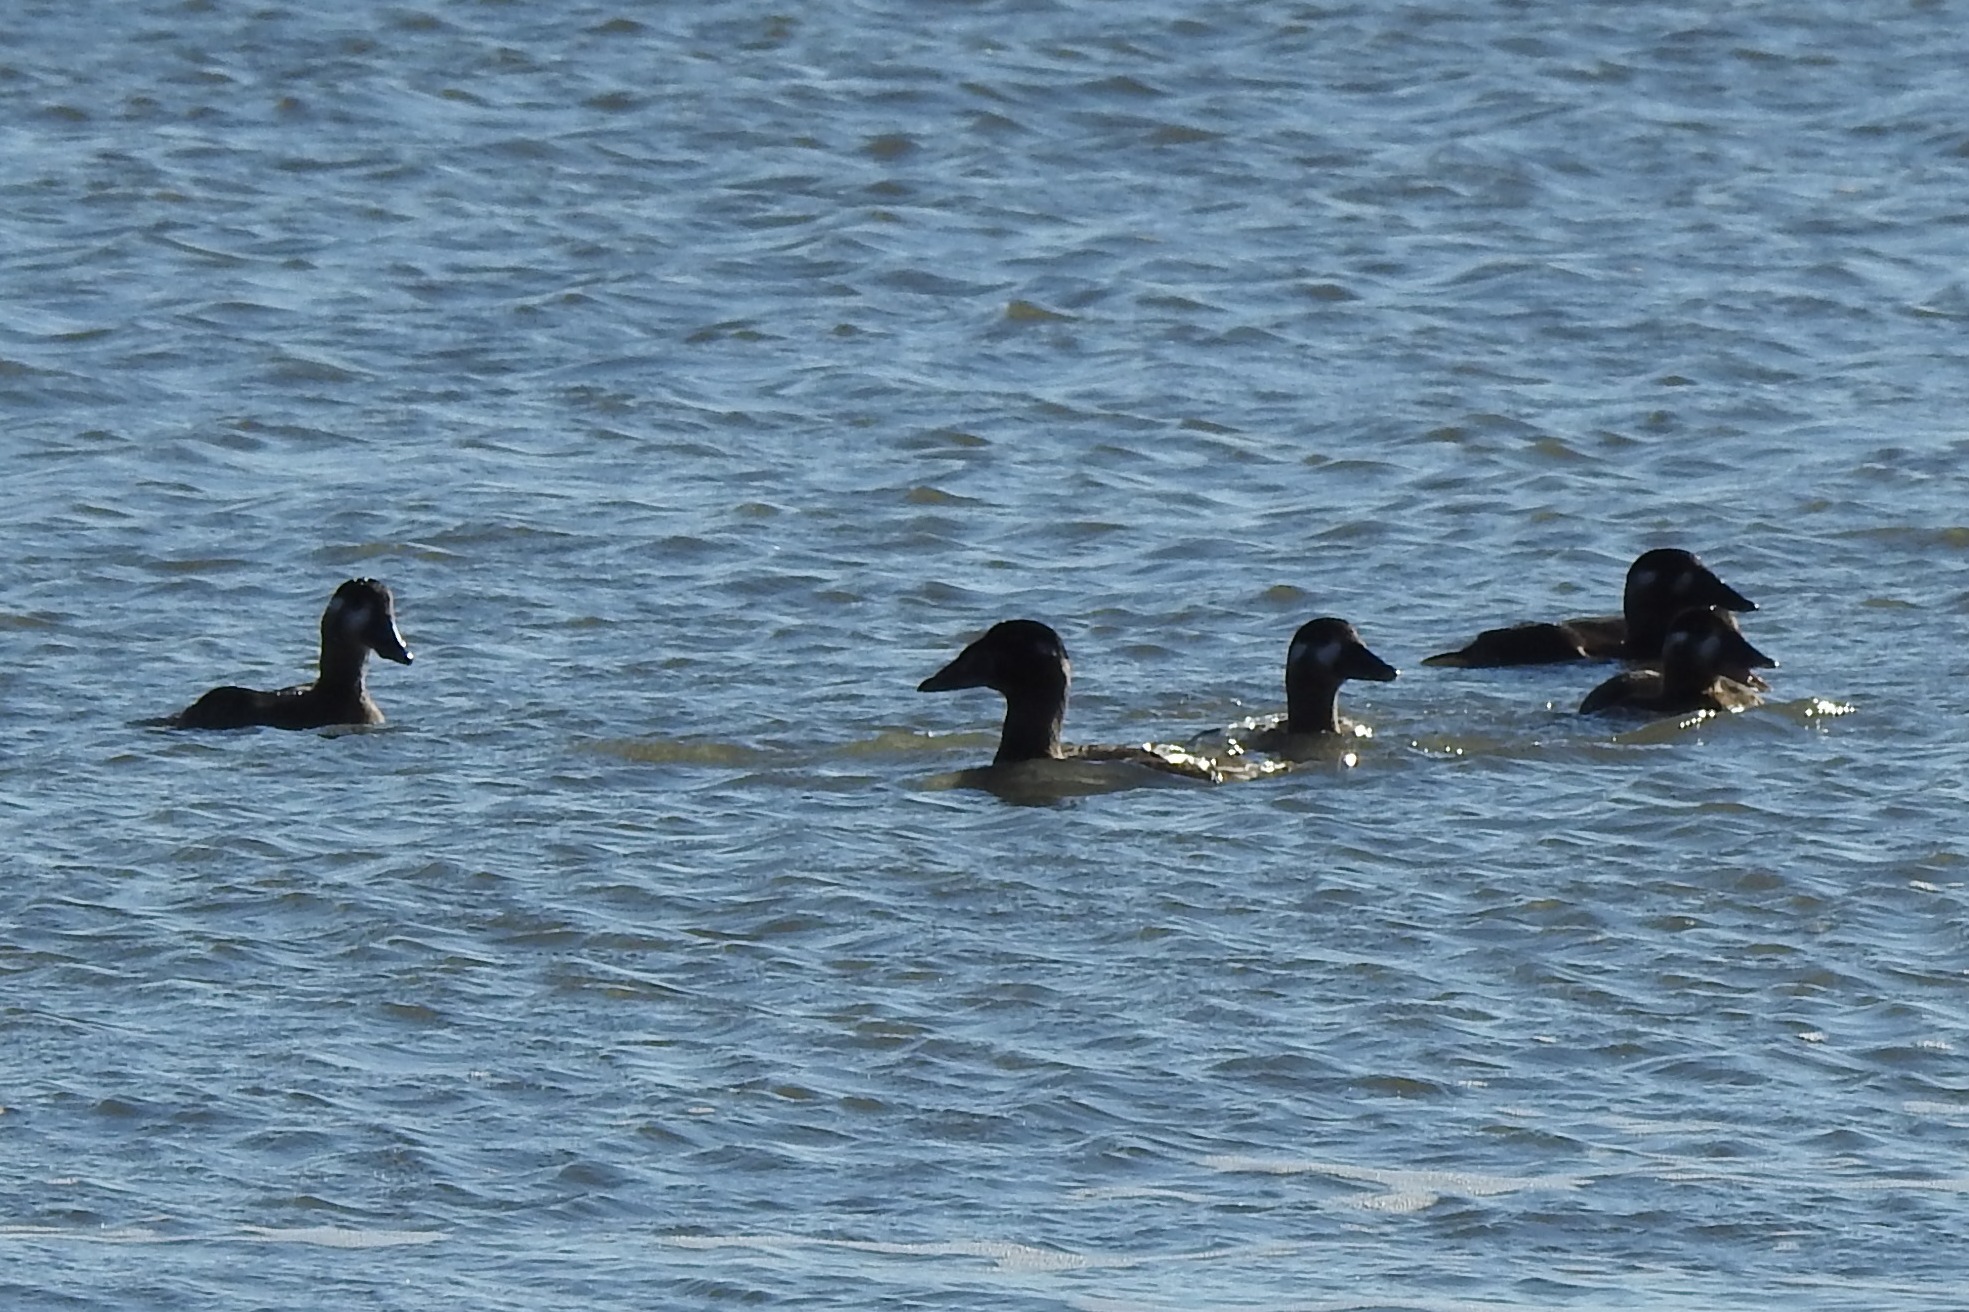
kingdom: Animalia
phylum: Chordata
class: Aves
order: Anseriformes
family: Anatidae
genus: Melanitta
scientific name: Melanitta perspicillata
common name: Surf scoter
